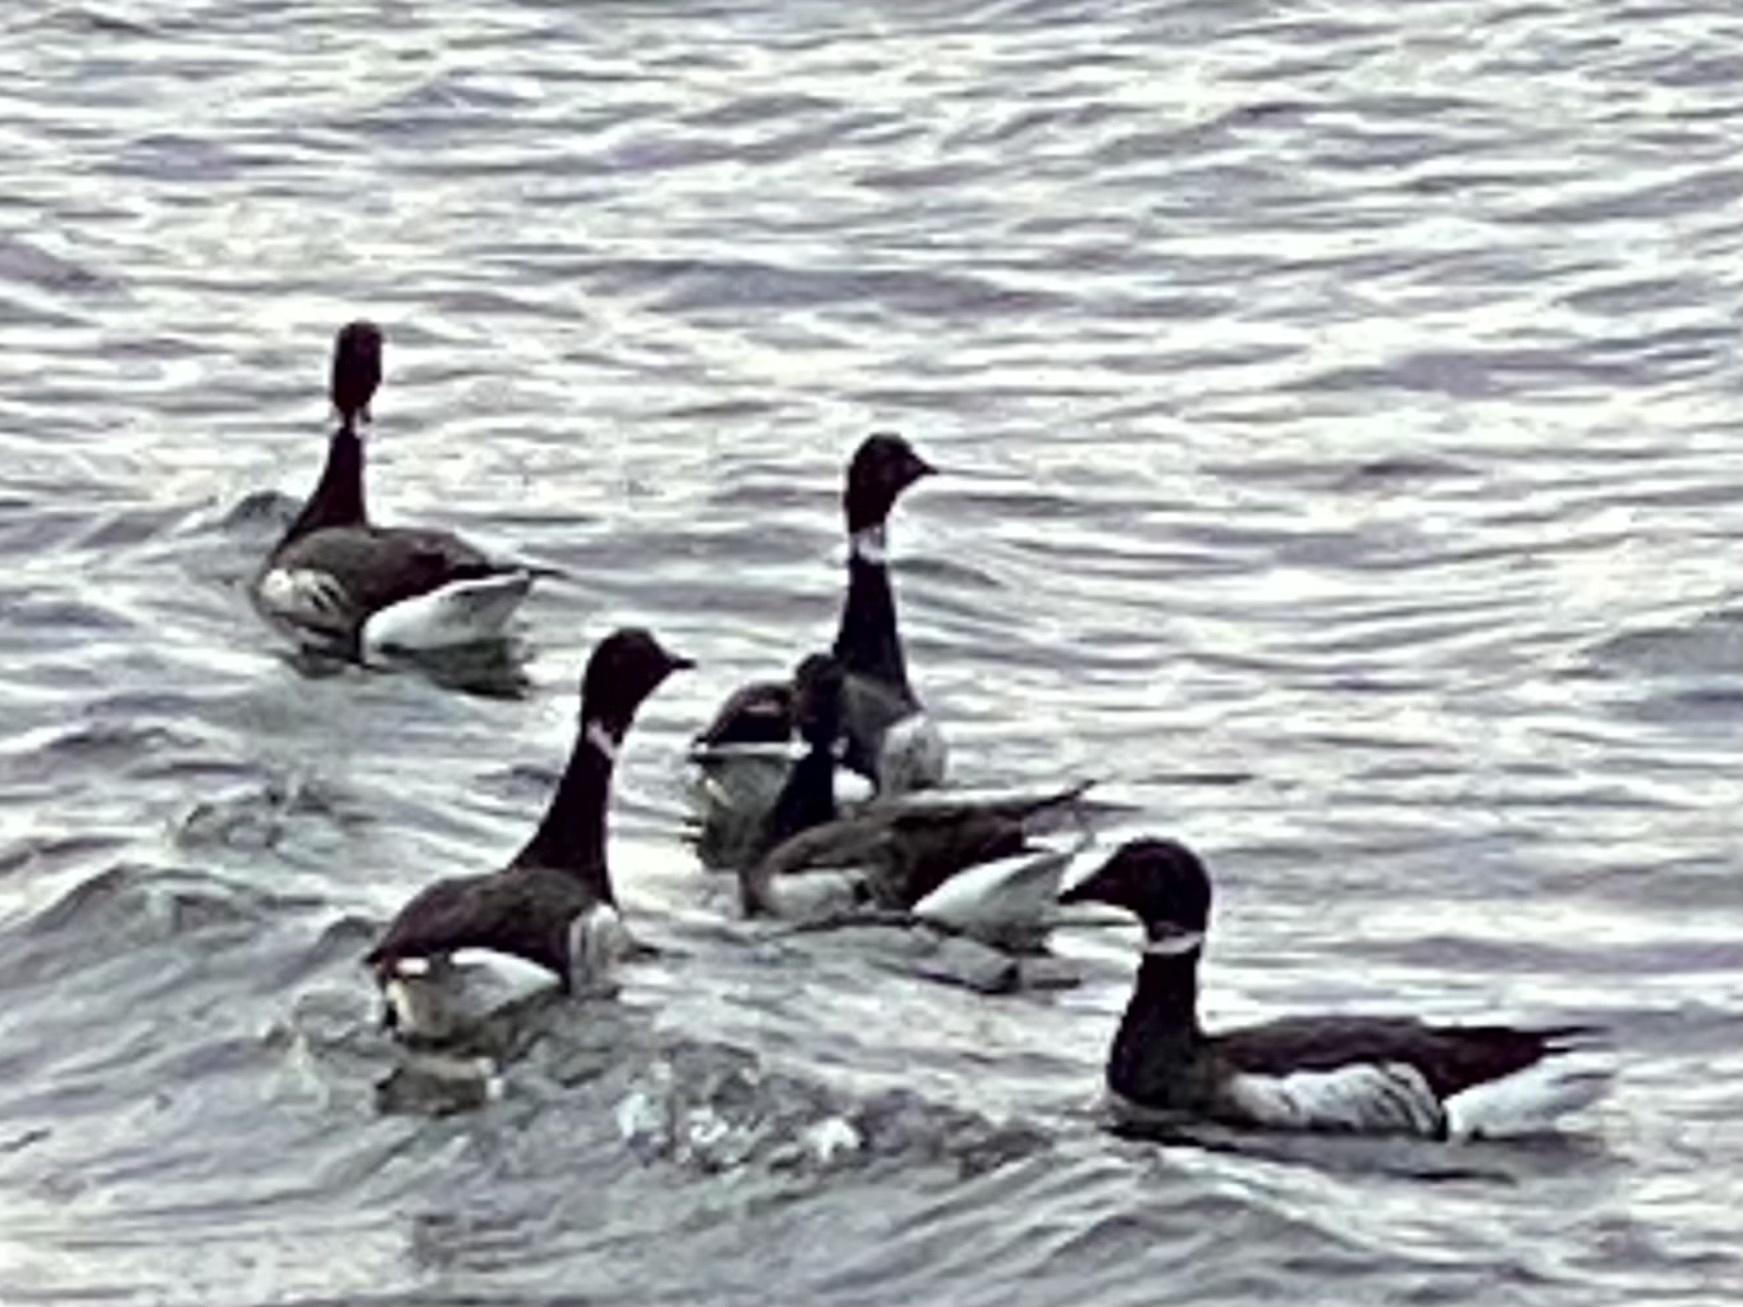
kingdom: Animalia
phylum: Chordata
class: Aves
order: Anseriformes
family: Anatidae
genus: Branta
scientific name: Branta bernicla
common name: Brant goose
